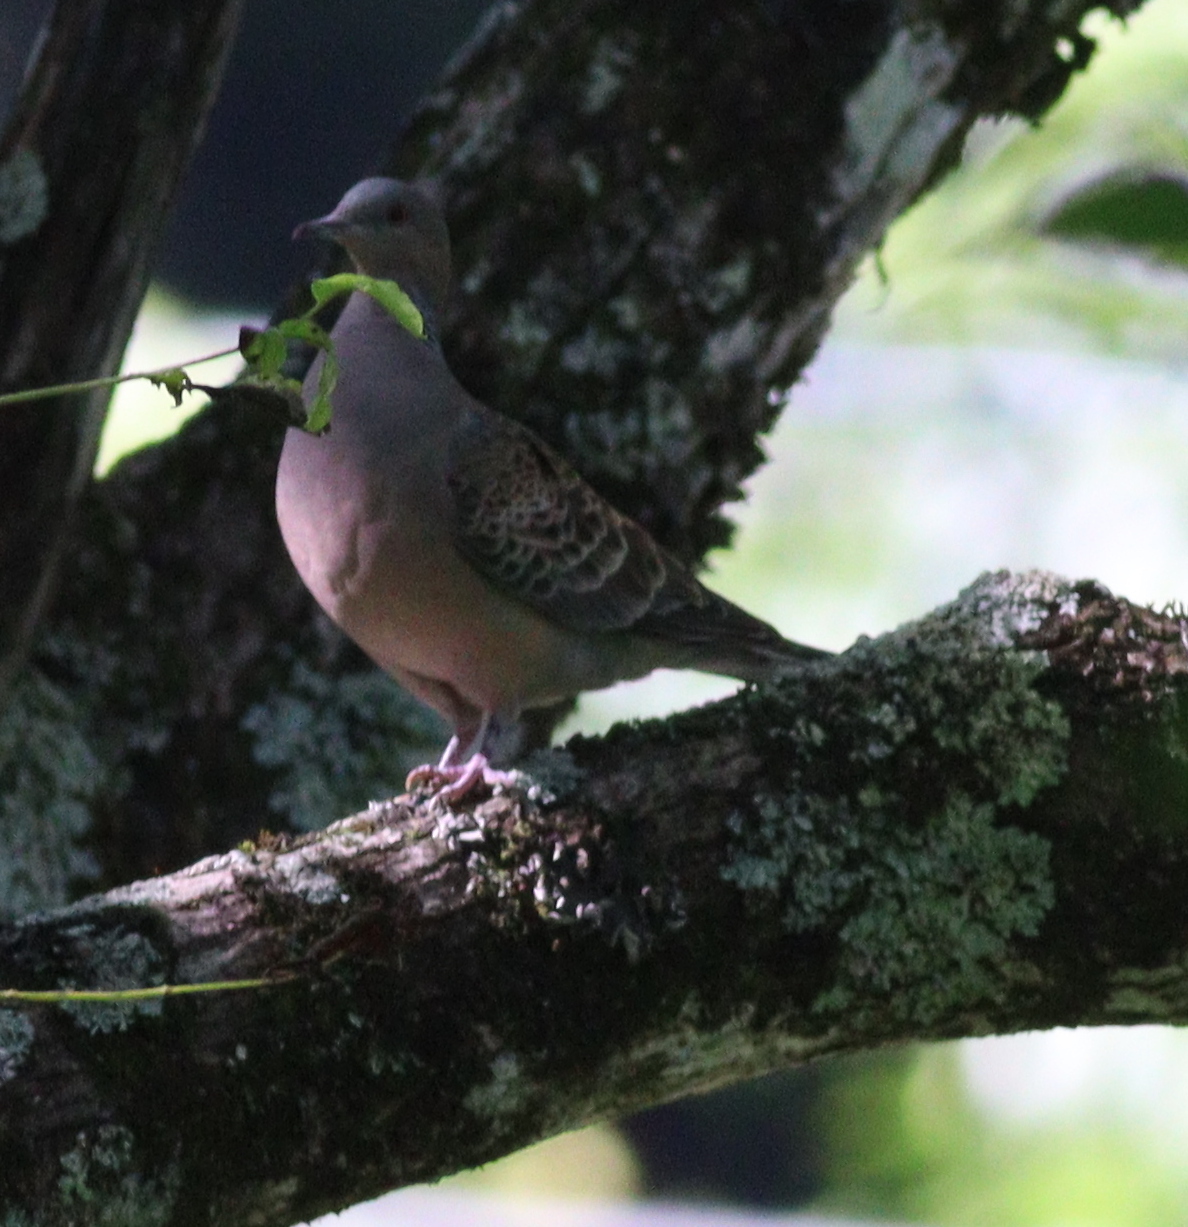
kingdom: Animalia
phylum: Chordata
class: Aves
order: Columbiformes
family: Columbidae
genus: Streptopelia
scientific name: Streptopelia orientalis
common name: Oriental turtle dove
